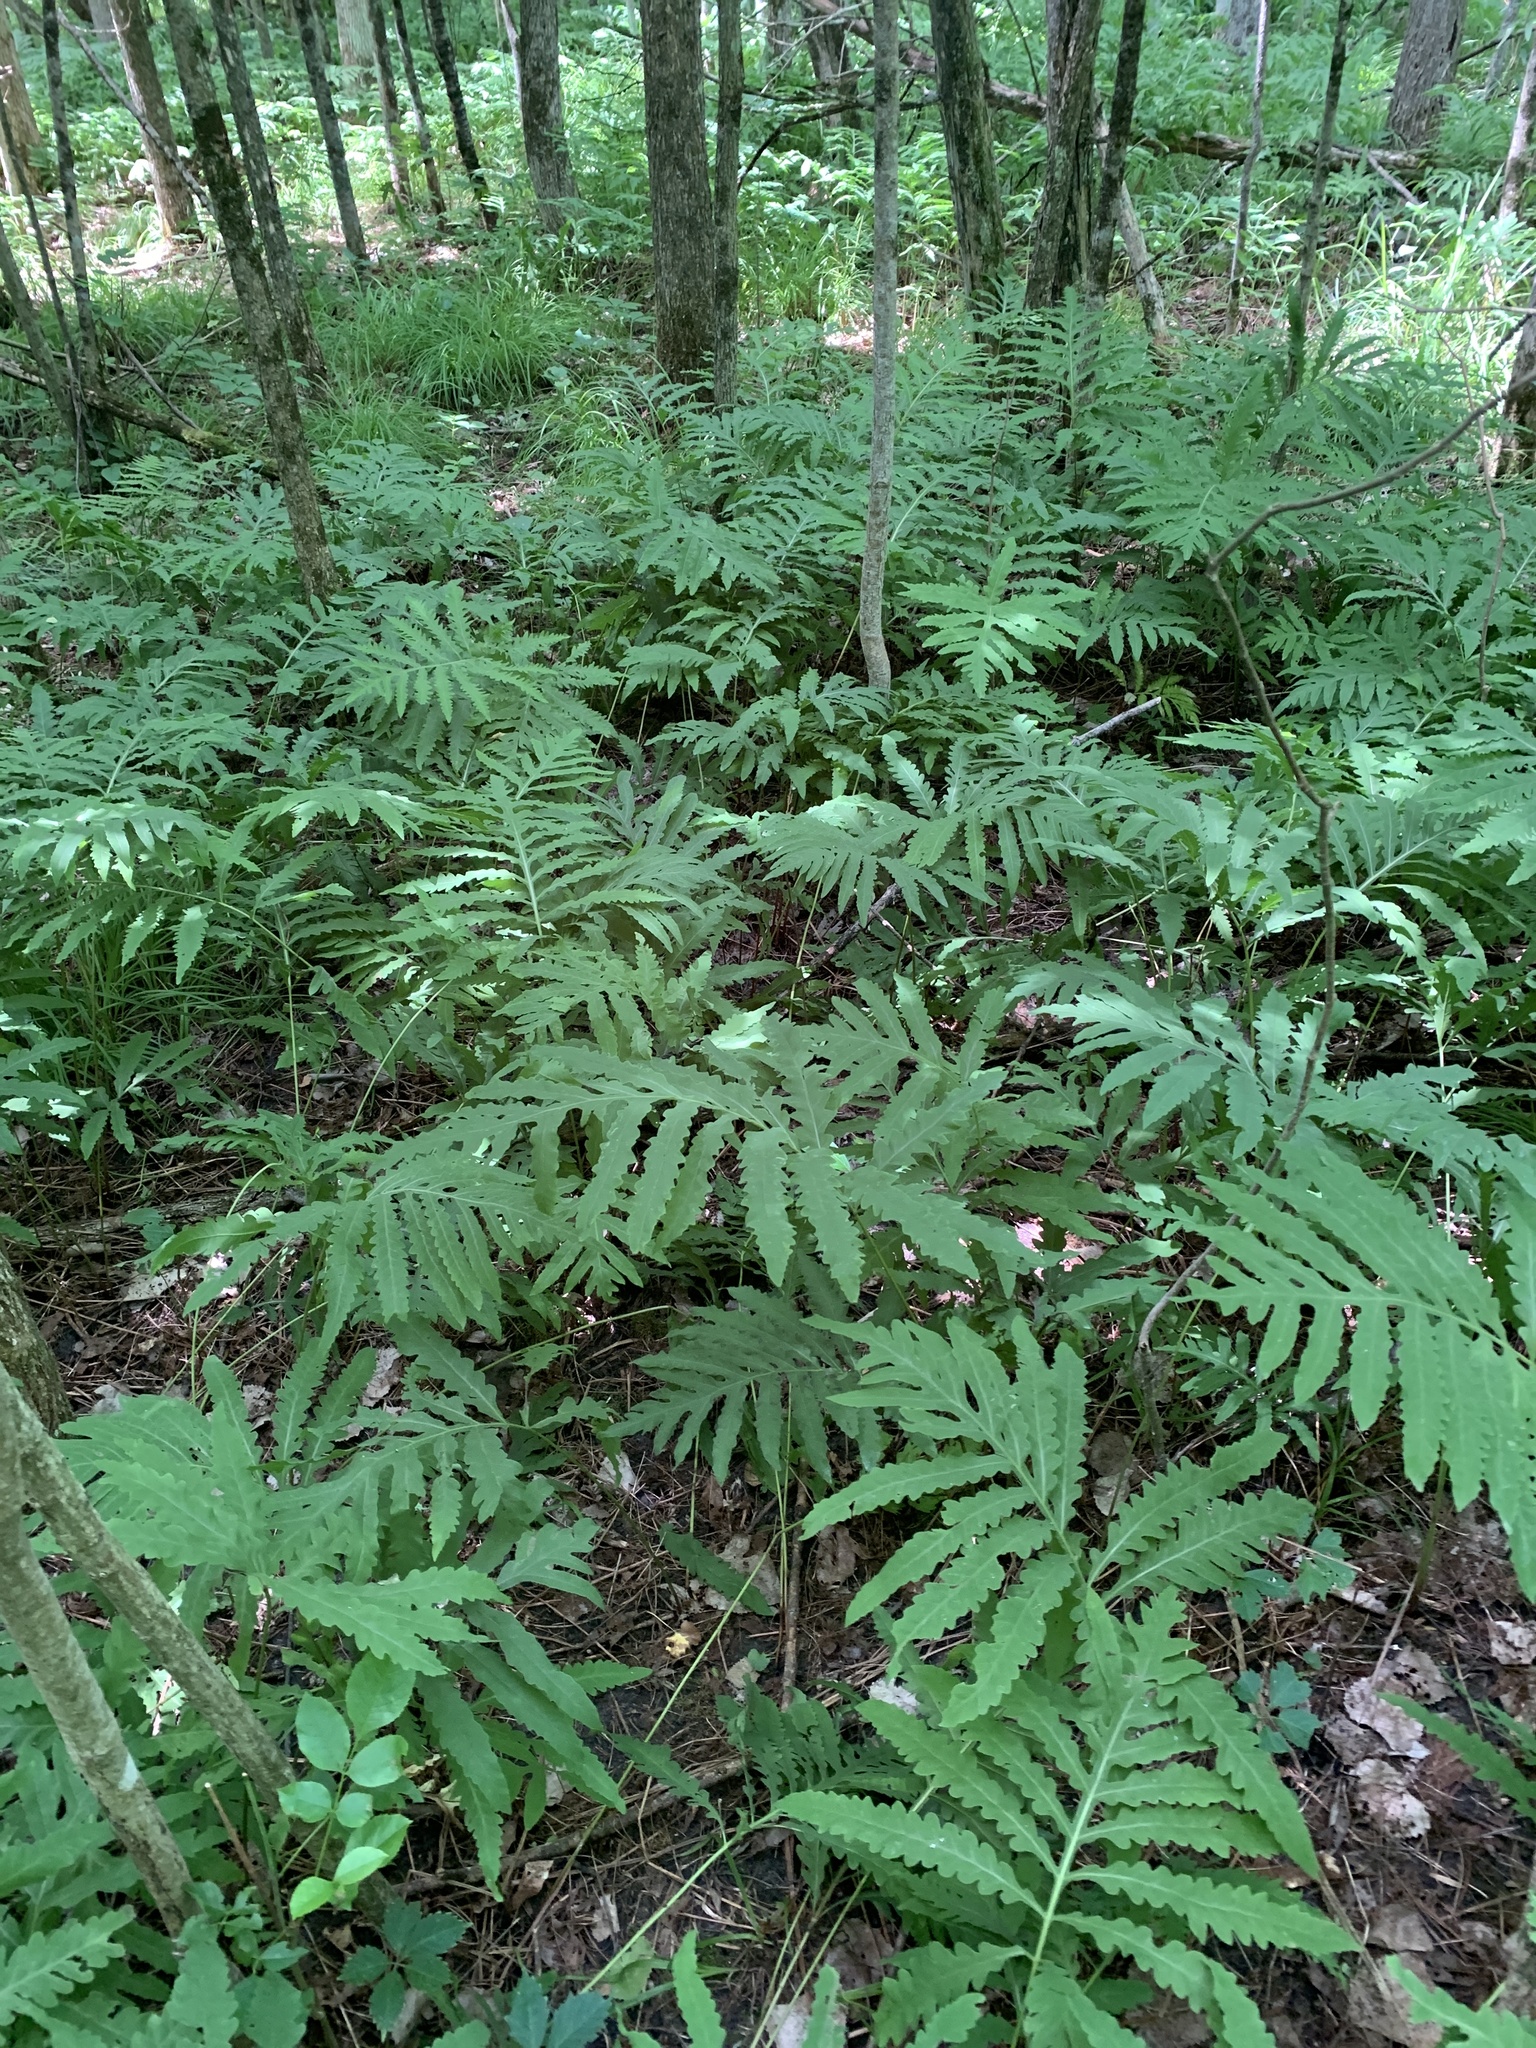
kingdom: Plantae
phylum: Tracheophyta
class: Polypodiopsida
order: Polypodiales
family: Onocleaceae
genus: Onoclea
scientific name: Onoclea sensibilis
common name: Sensitive fern
